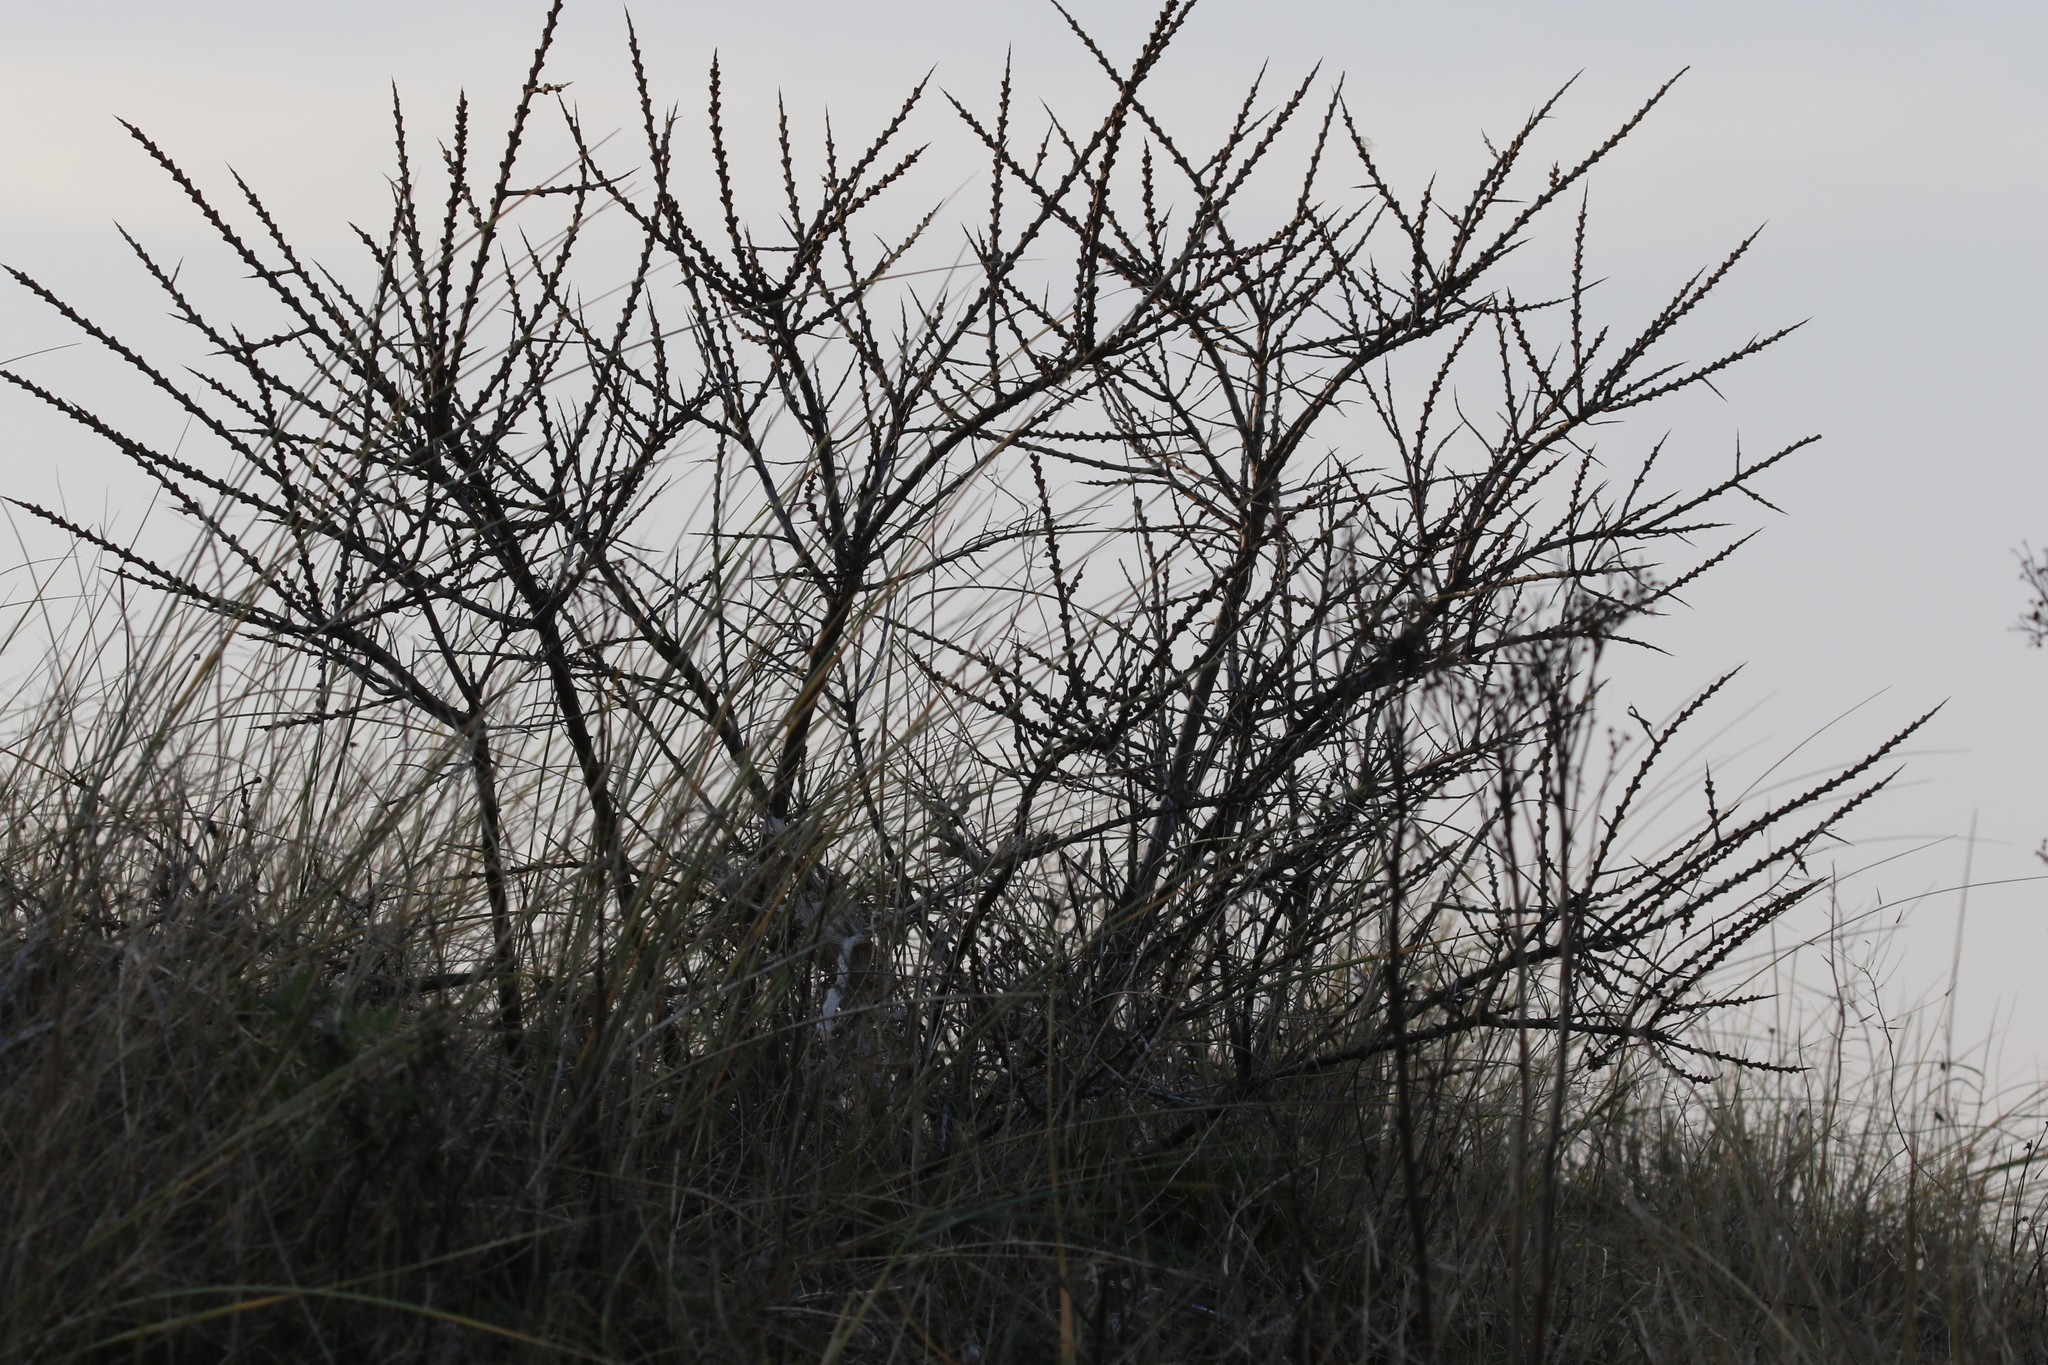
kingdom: Plantae
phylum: Tracheophyta
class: Magnoliopsida
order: Rosales
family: Elaeagnaceae
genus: Hippophae
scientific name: Hippophae rhamnoides
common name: Sea-buckthorn
